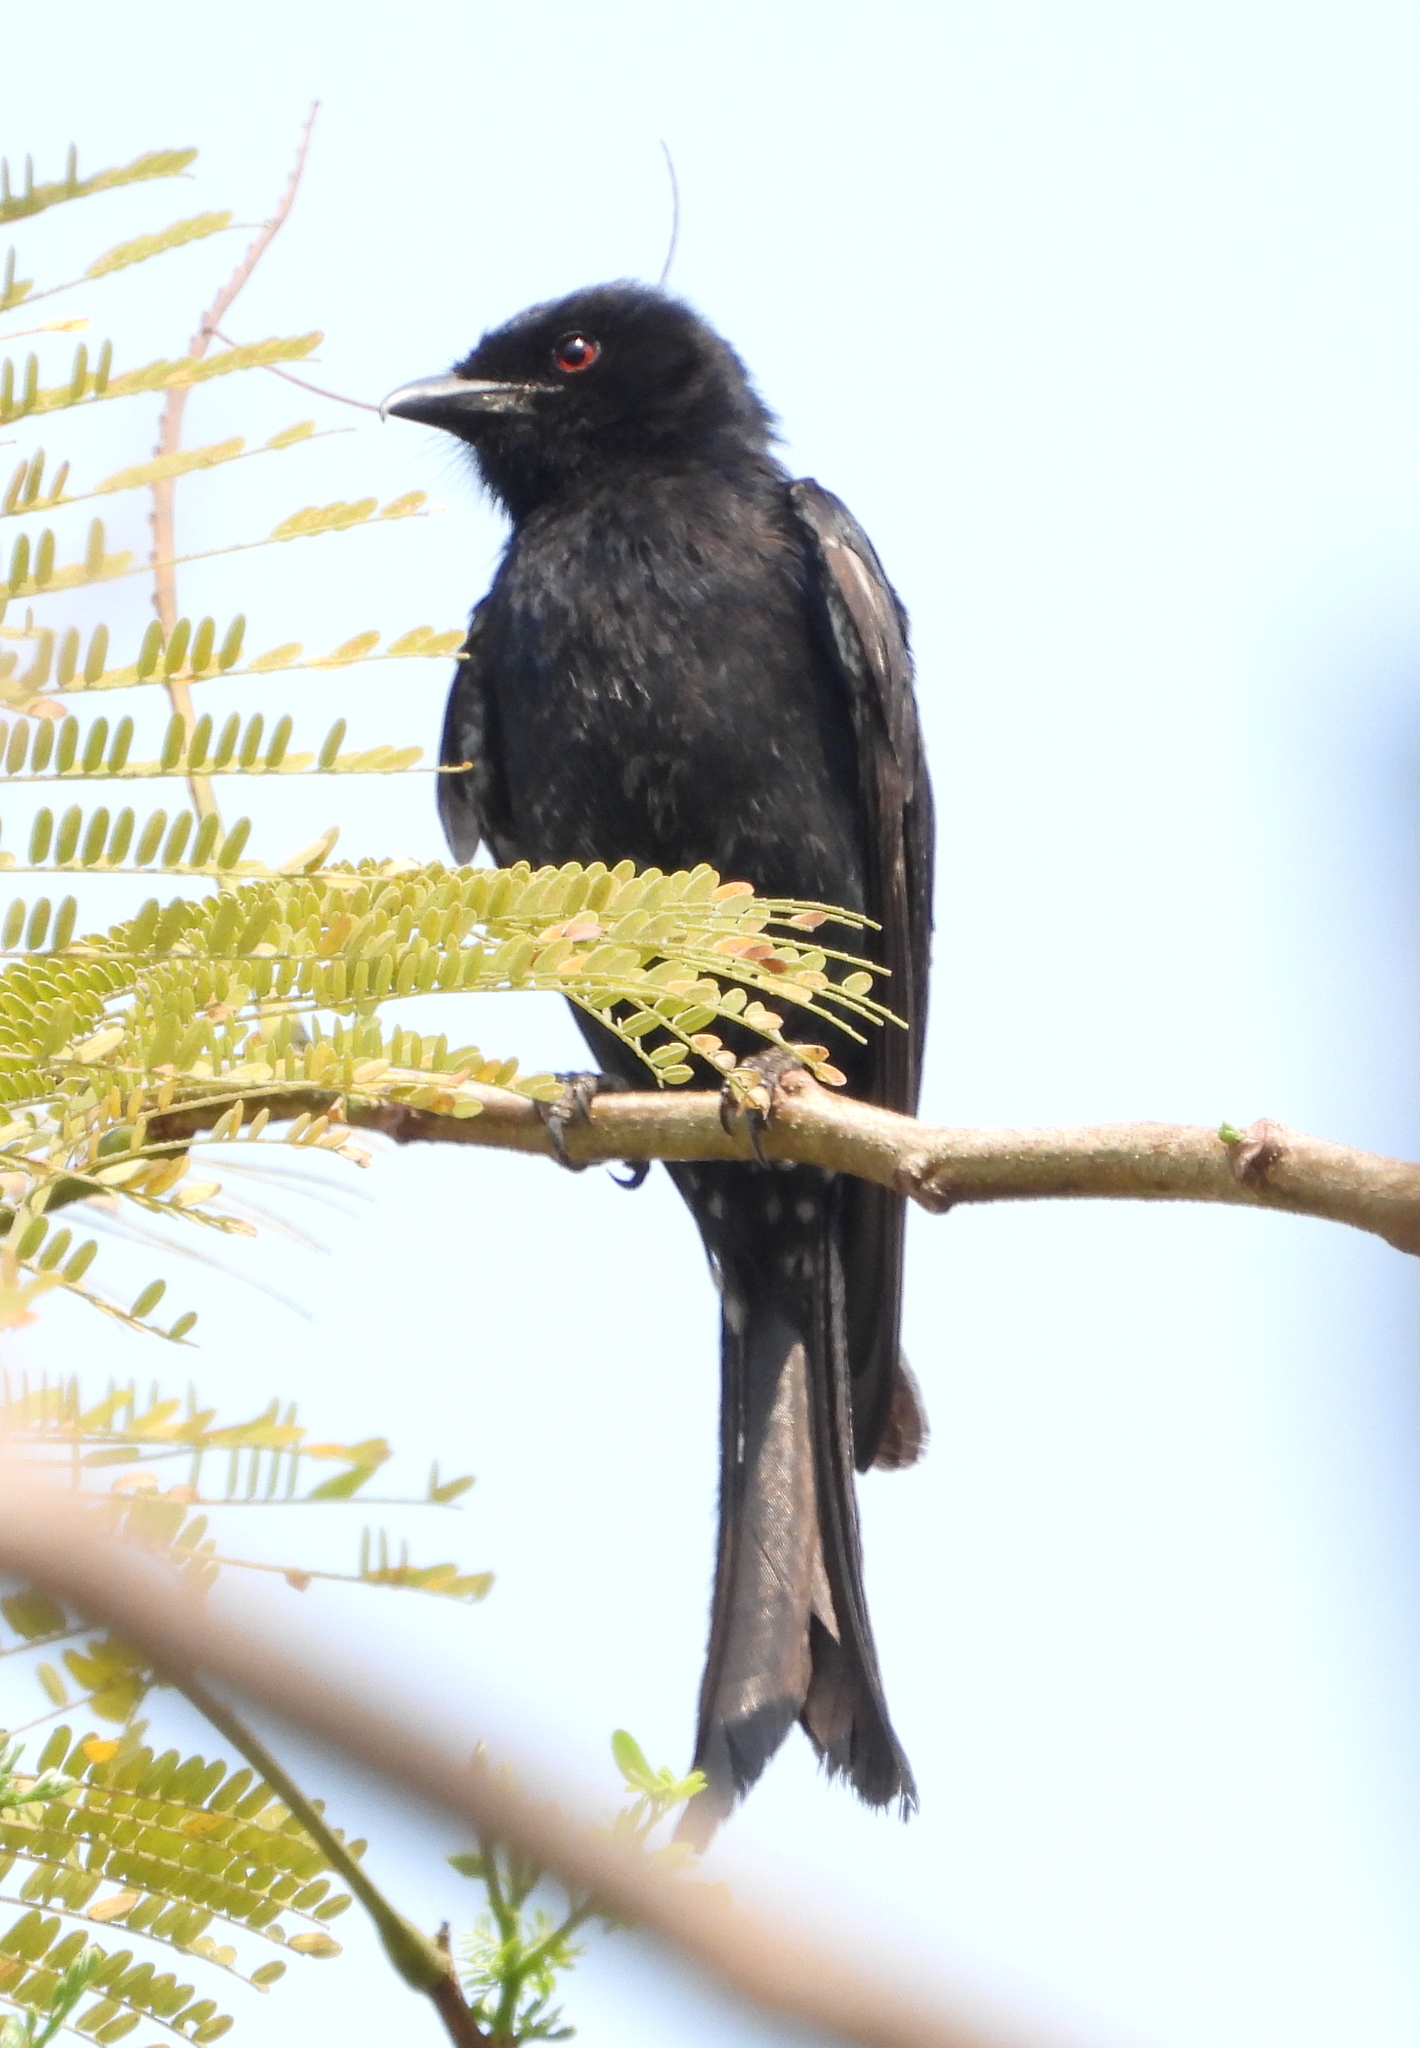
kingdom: Animalia
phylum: Chordata
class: Aves
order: Passeriformes
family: Dicruridae
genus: Dicrurus
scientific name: Dicrurus adsimilis
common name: Fork-tailed drongo
